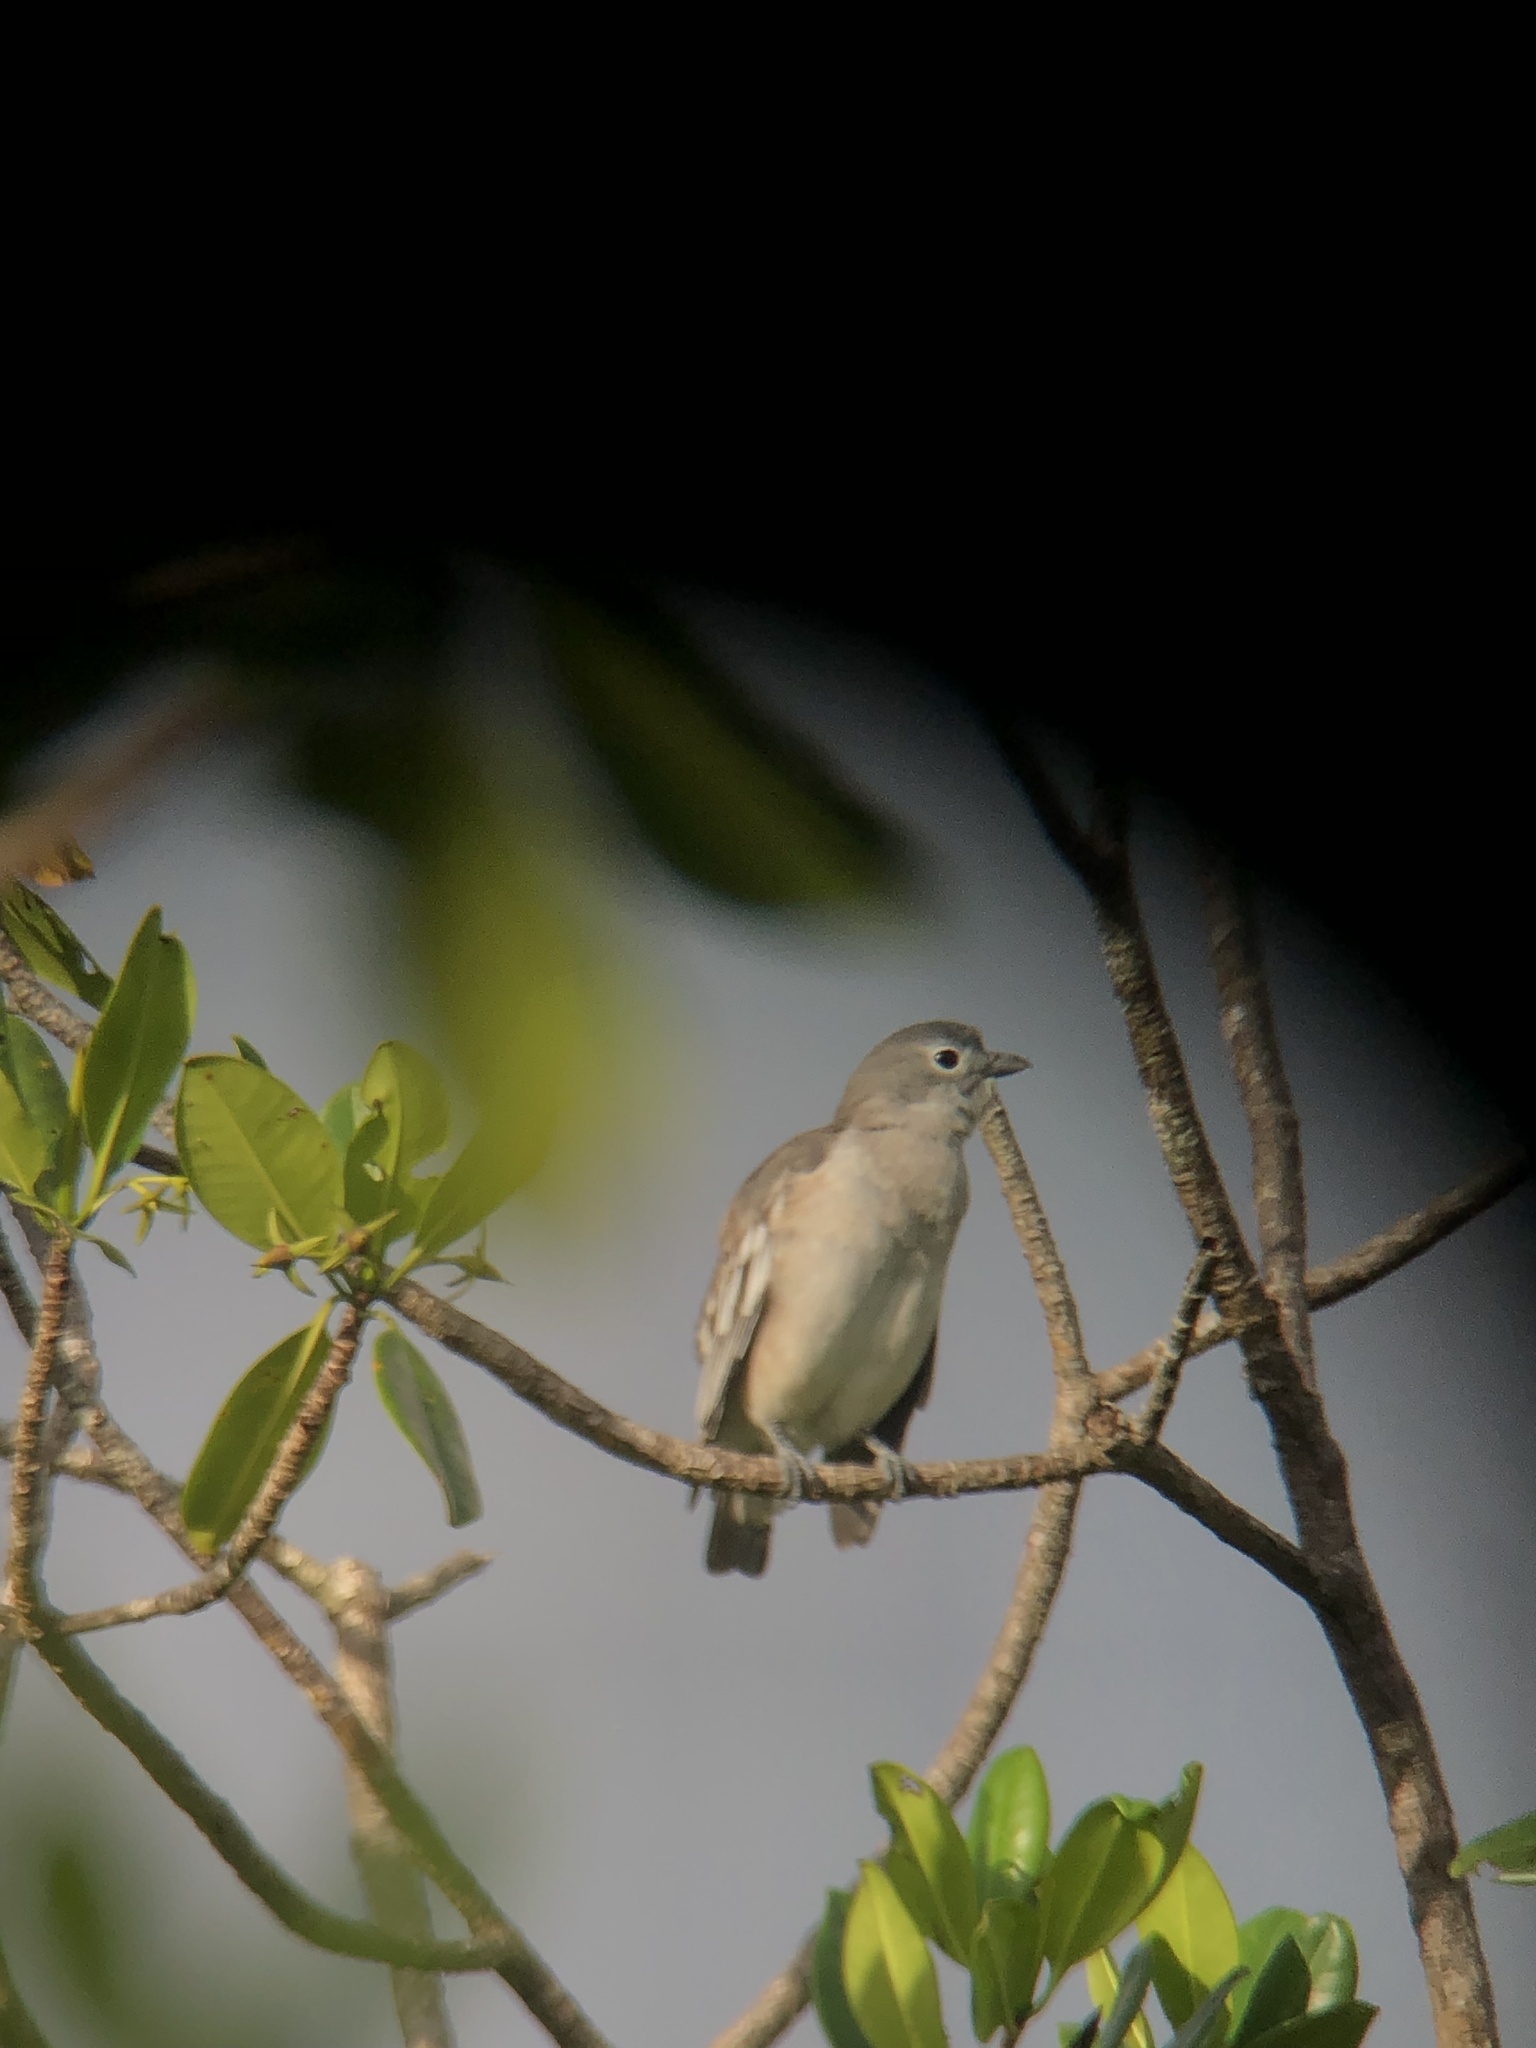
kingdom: Animalia
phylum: Chordata
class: Aves
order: Passeriformes
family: Cotingidae
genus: Carpodectes
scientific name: Carpodectes nitidus
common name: Snowy cotinga
